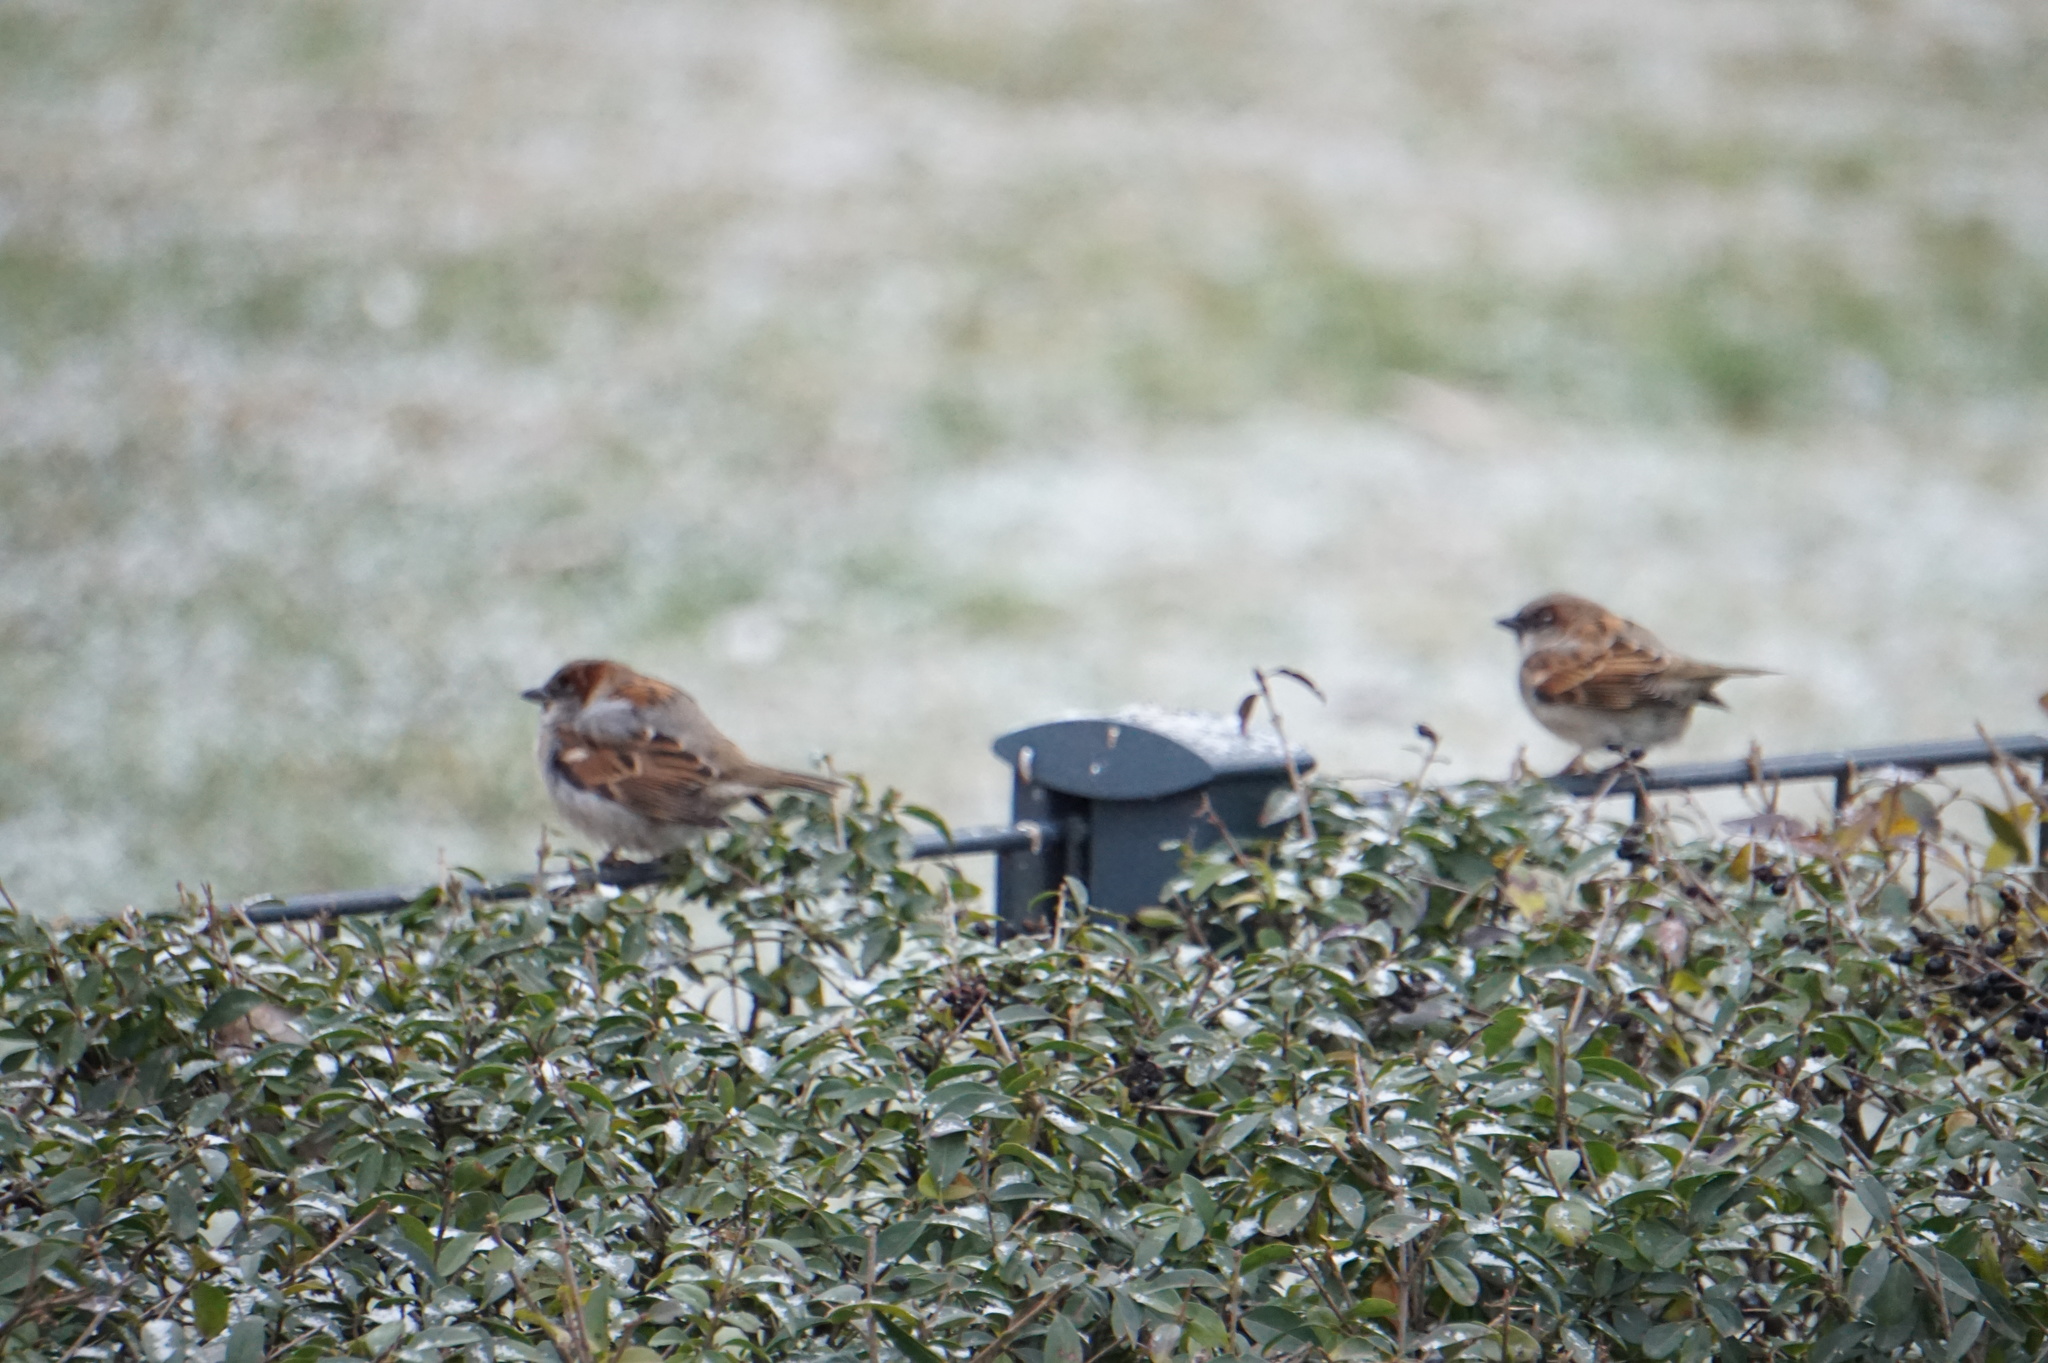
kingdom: Animalia
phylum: Chordata
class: Aves
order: Passeriformes
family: Passeridae
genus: Passer
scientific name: Passer domesticus
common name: House sparrow
